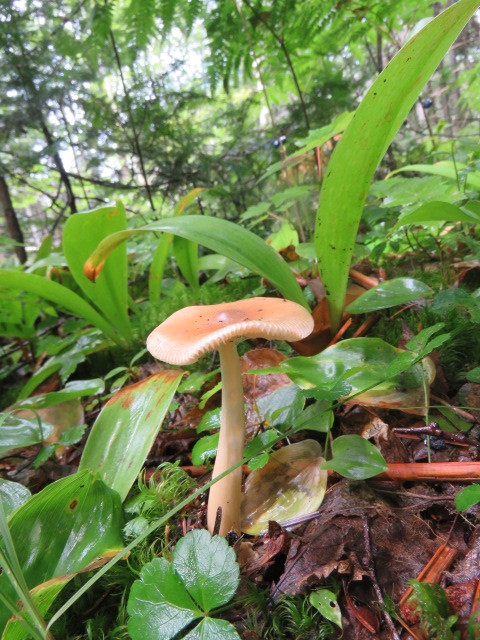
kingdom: Fungi
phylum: Basidiomycota
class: Agaricomycetes
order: Agaricales
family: Amanitaceae
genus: Amanita
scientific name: Amanita fulva
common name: Tawny grisette
